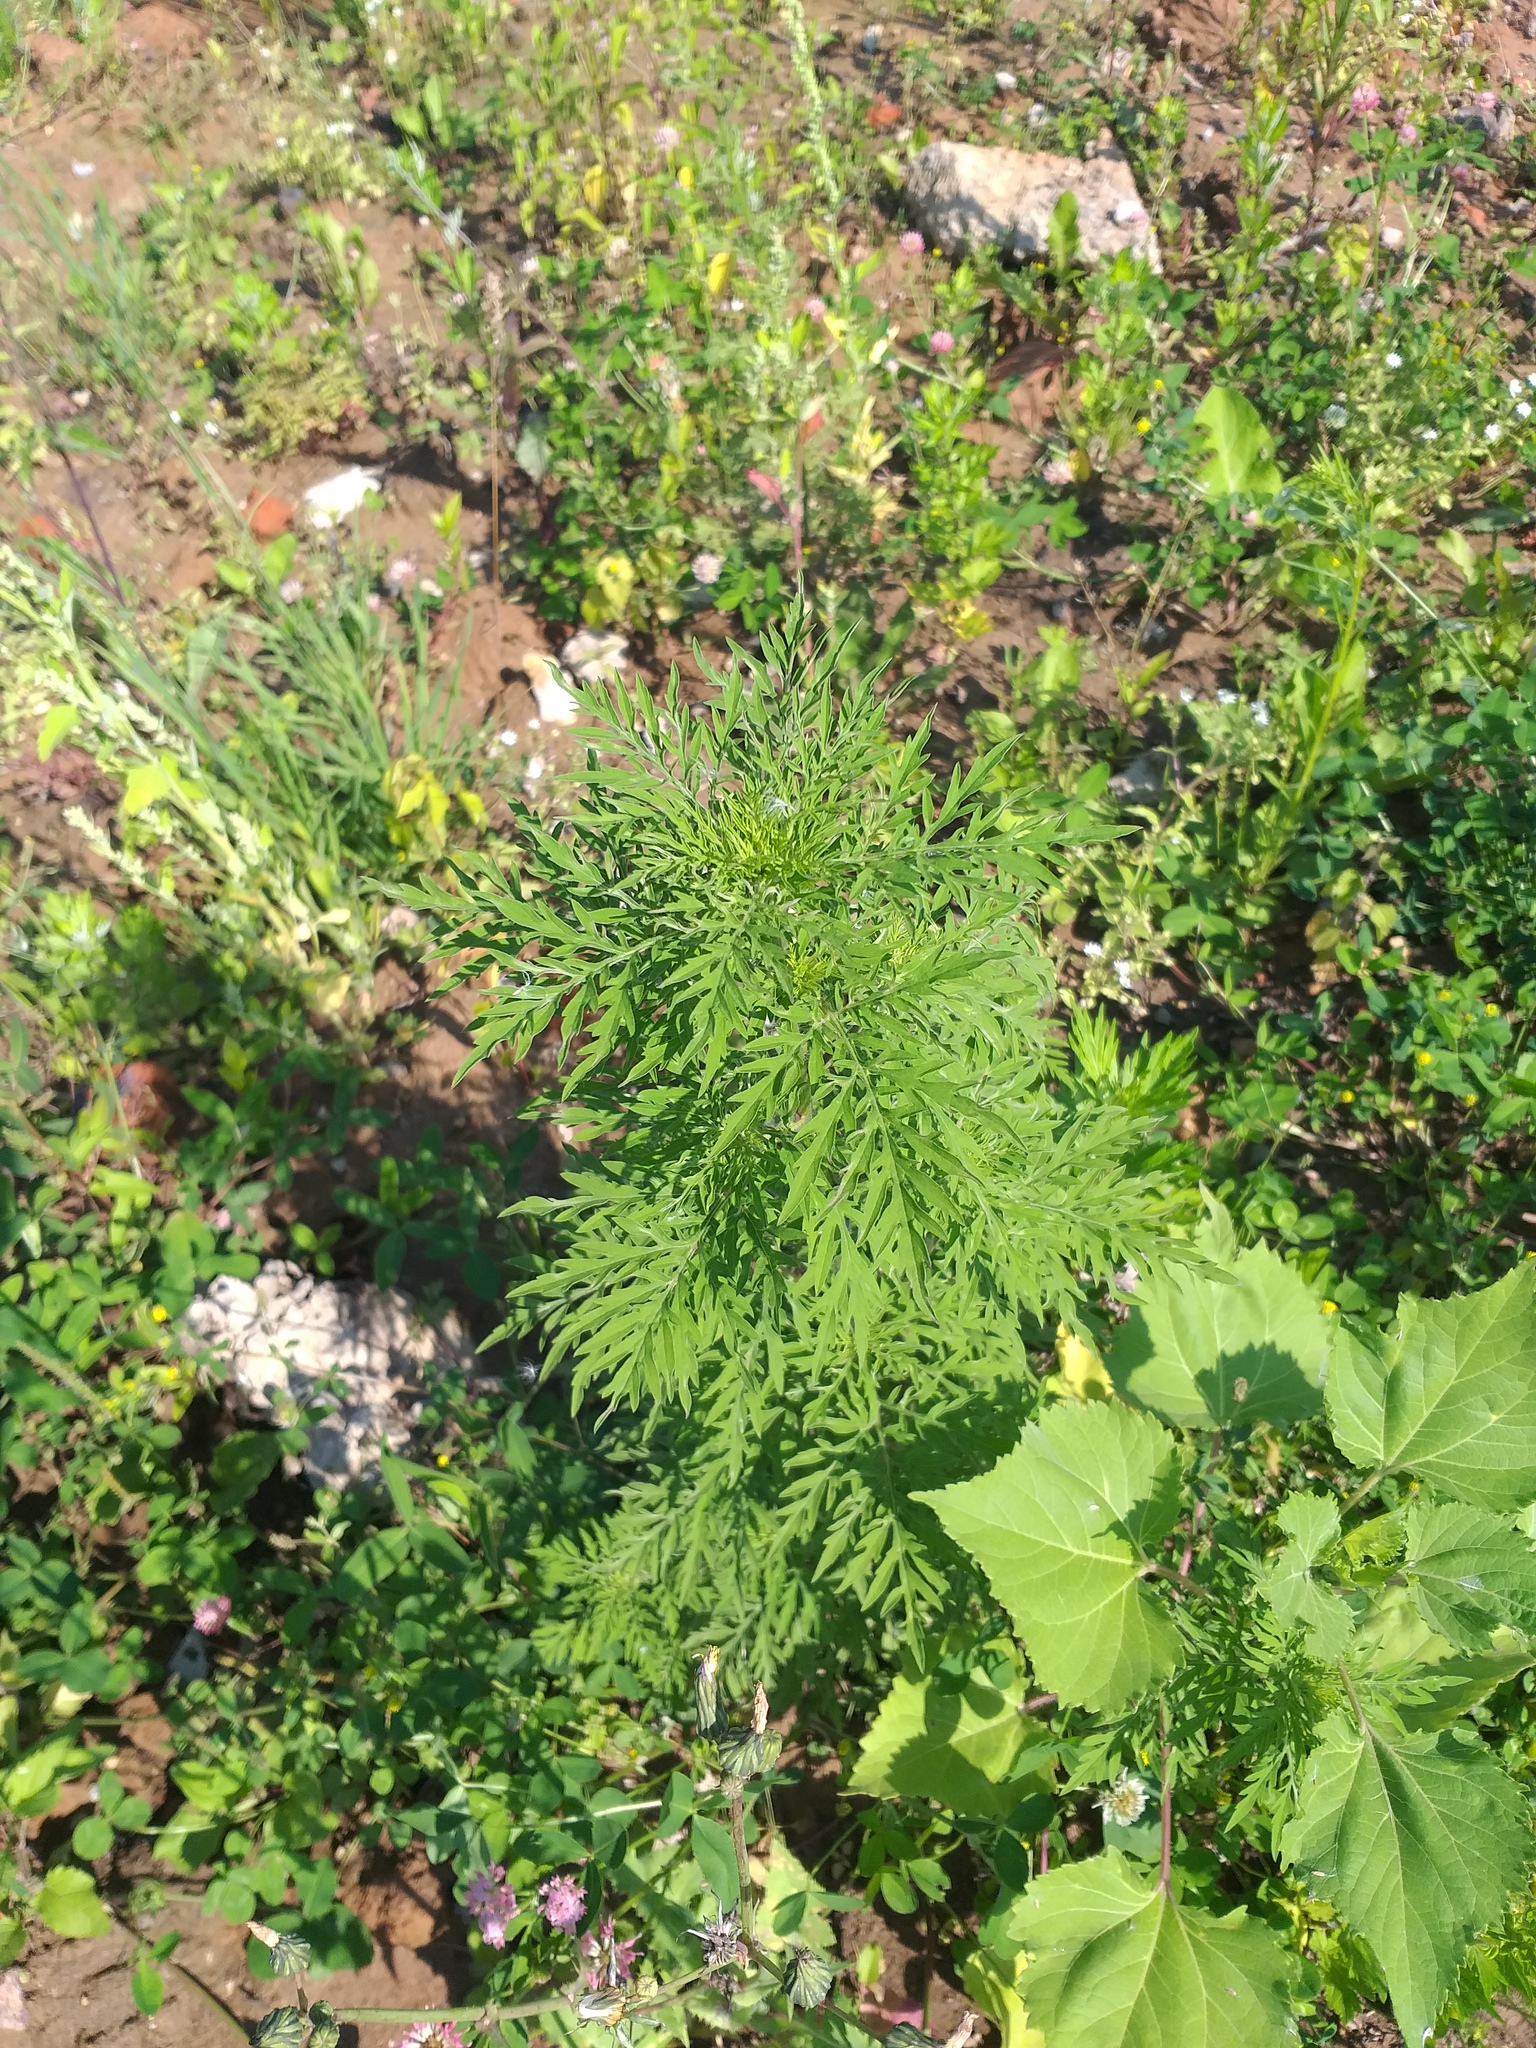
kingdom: Plantae
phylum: Tracheophyta
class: Magnoliopsida
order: Asterales
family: Asteraceae
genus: Ambrosia
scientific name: Ambrosia artemisiifolia
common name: Annual ragweed
